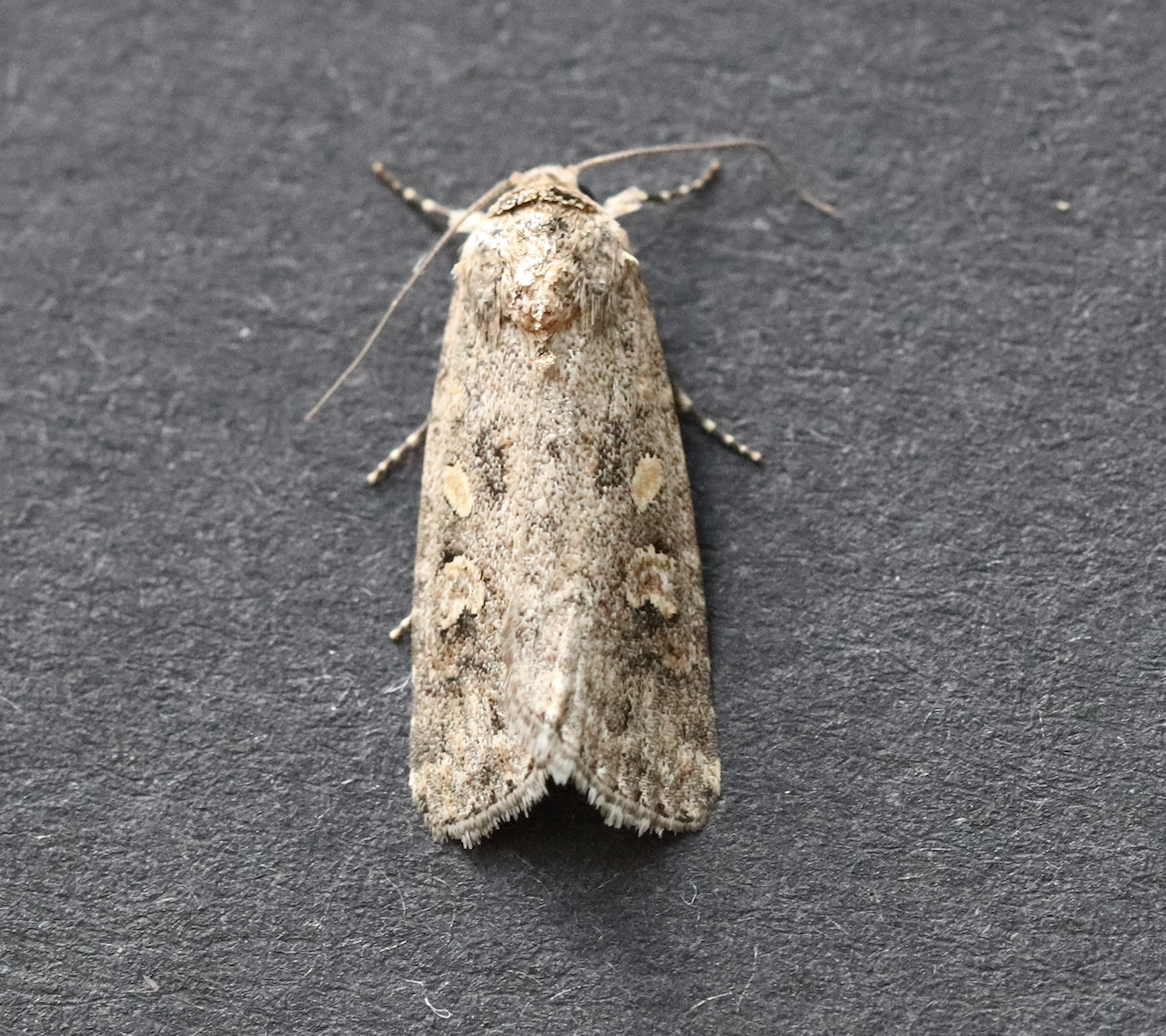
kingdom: Animalia
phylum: Arthropoda
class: Insecta
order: Lepidoptera
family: Noctuidae
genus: Spodoptera
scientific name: Spodoptera exigua
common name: Beet armyworm
